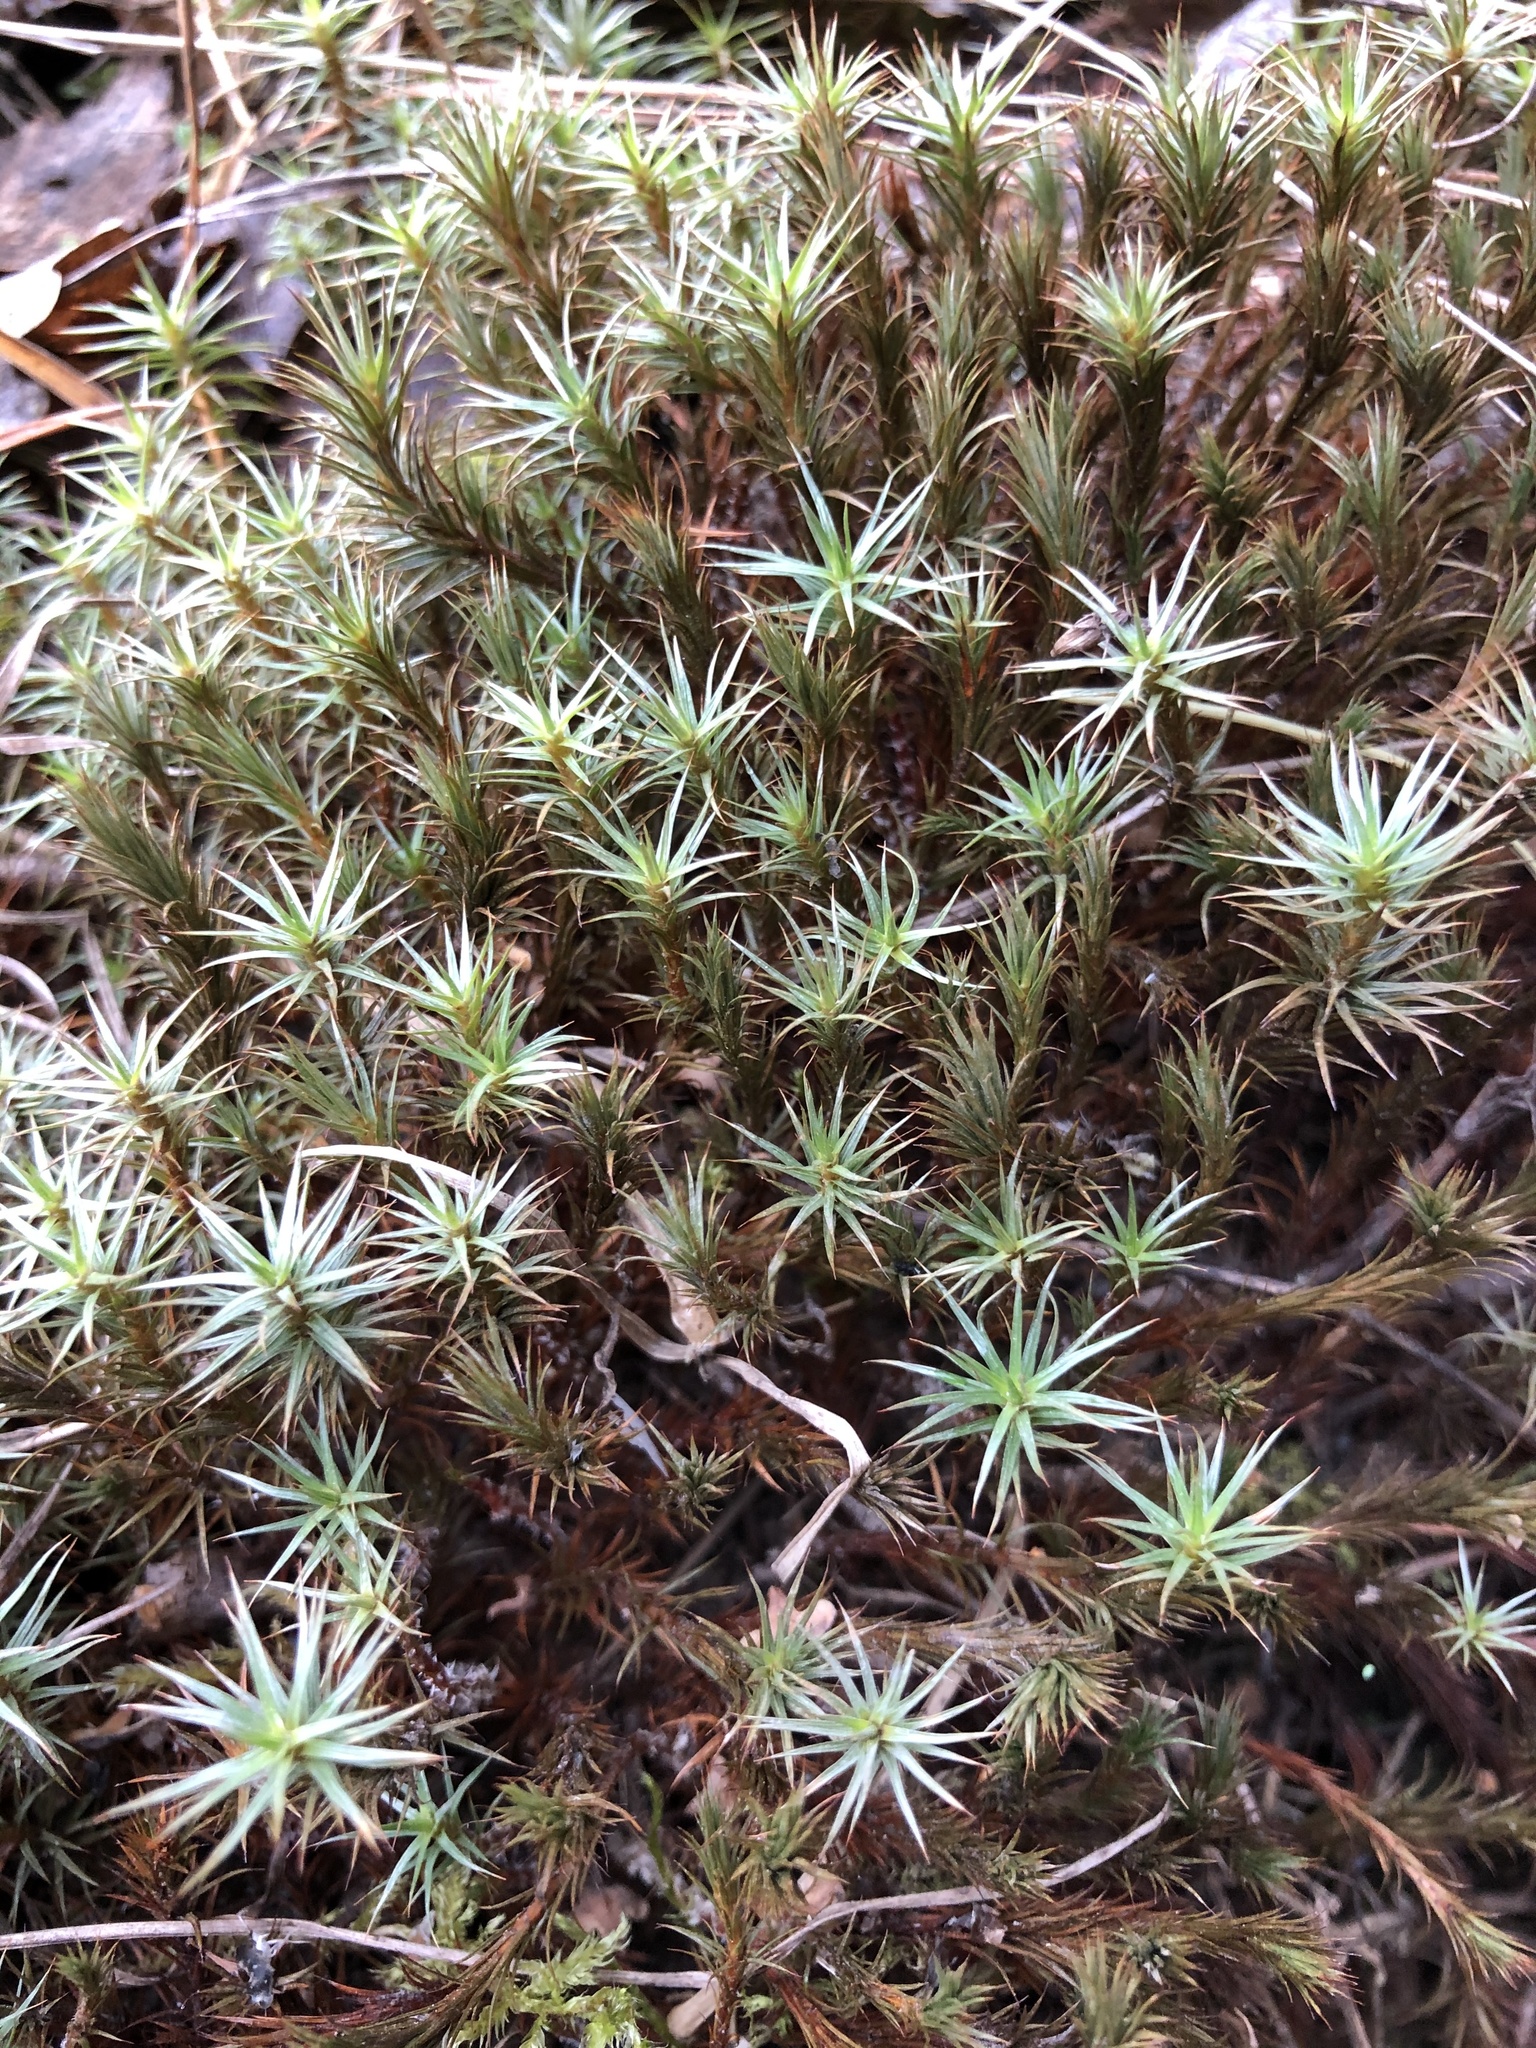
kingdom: Plantae
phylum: Bryophyta
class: Polytrichopsida
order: Polytrichales
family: Polytrichaceae
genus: Polytrichum
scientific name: Polytrichum juniperinum
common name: Juniper haircap moss
